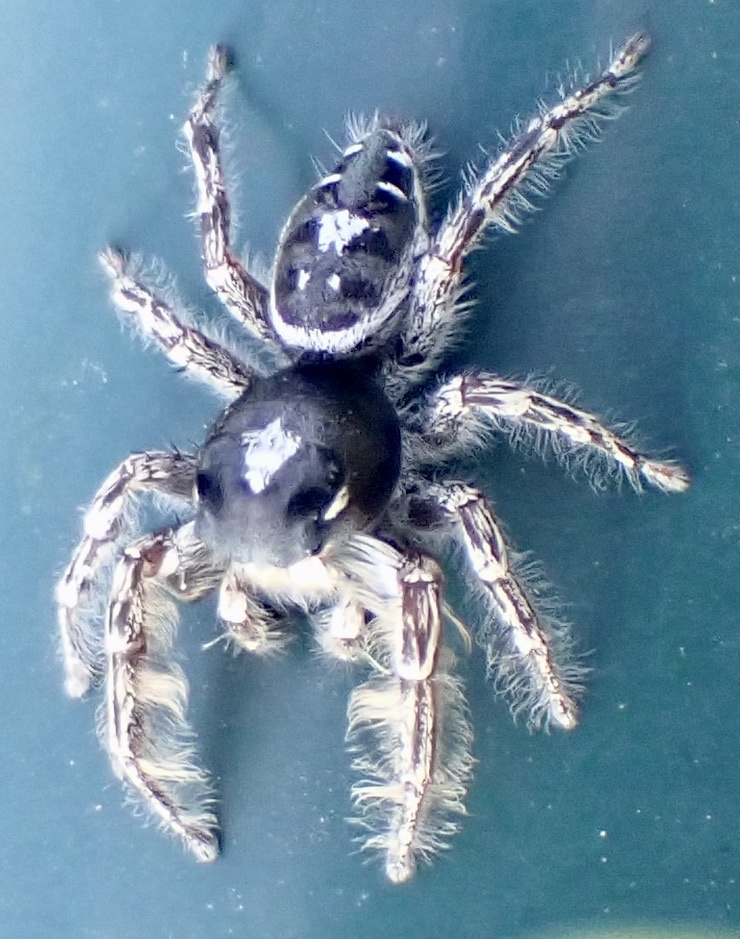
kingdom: Animalia
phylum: Arthropoda
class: Arachnida
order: Araneae
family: Salticidae
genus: Phidippus
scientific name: Phidippus putnami
